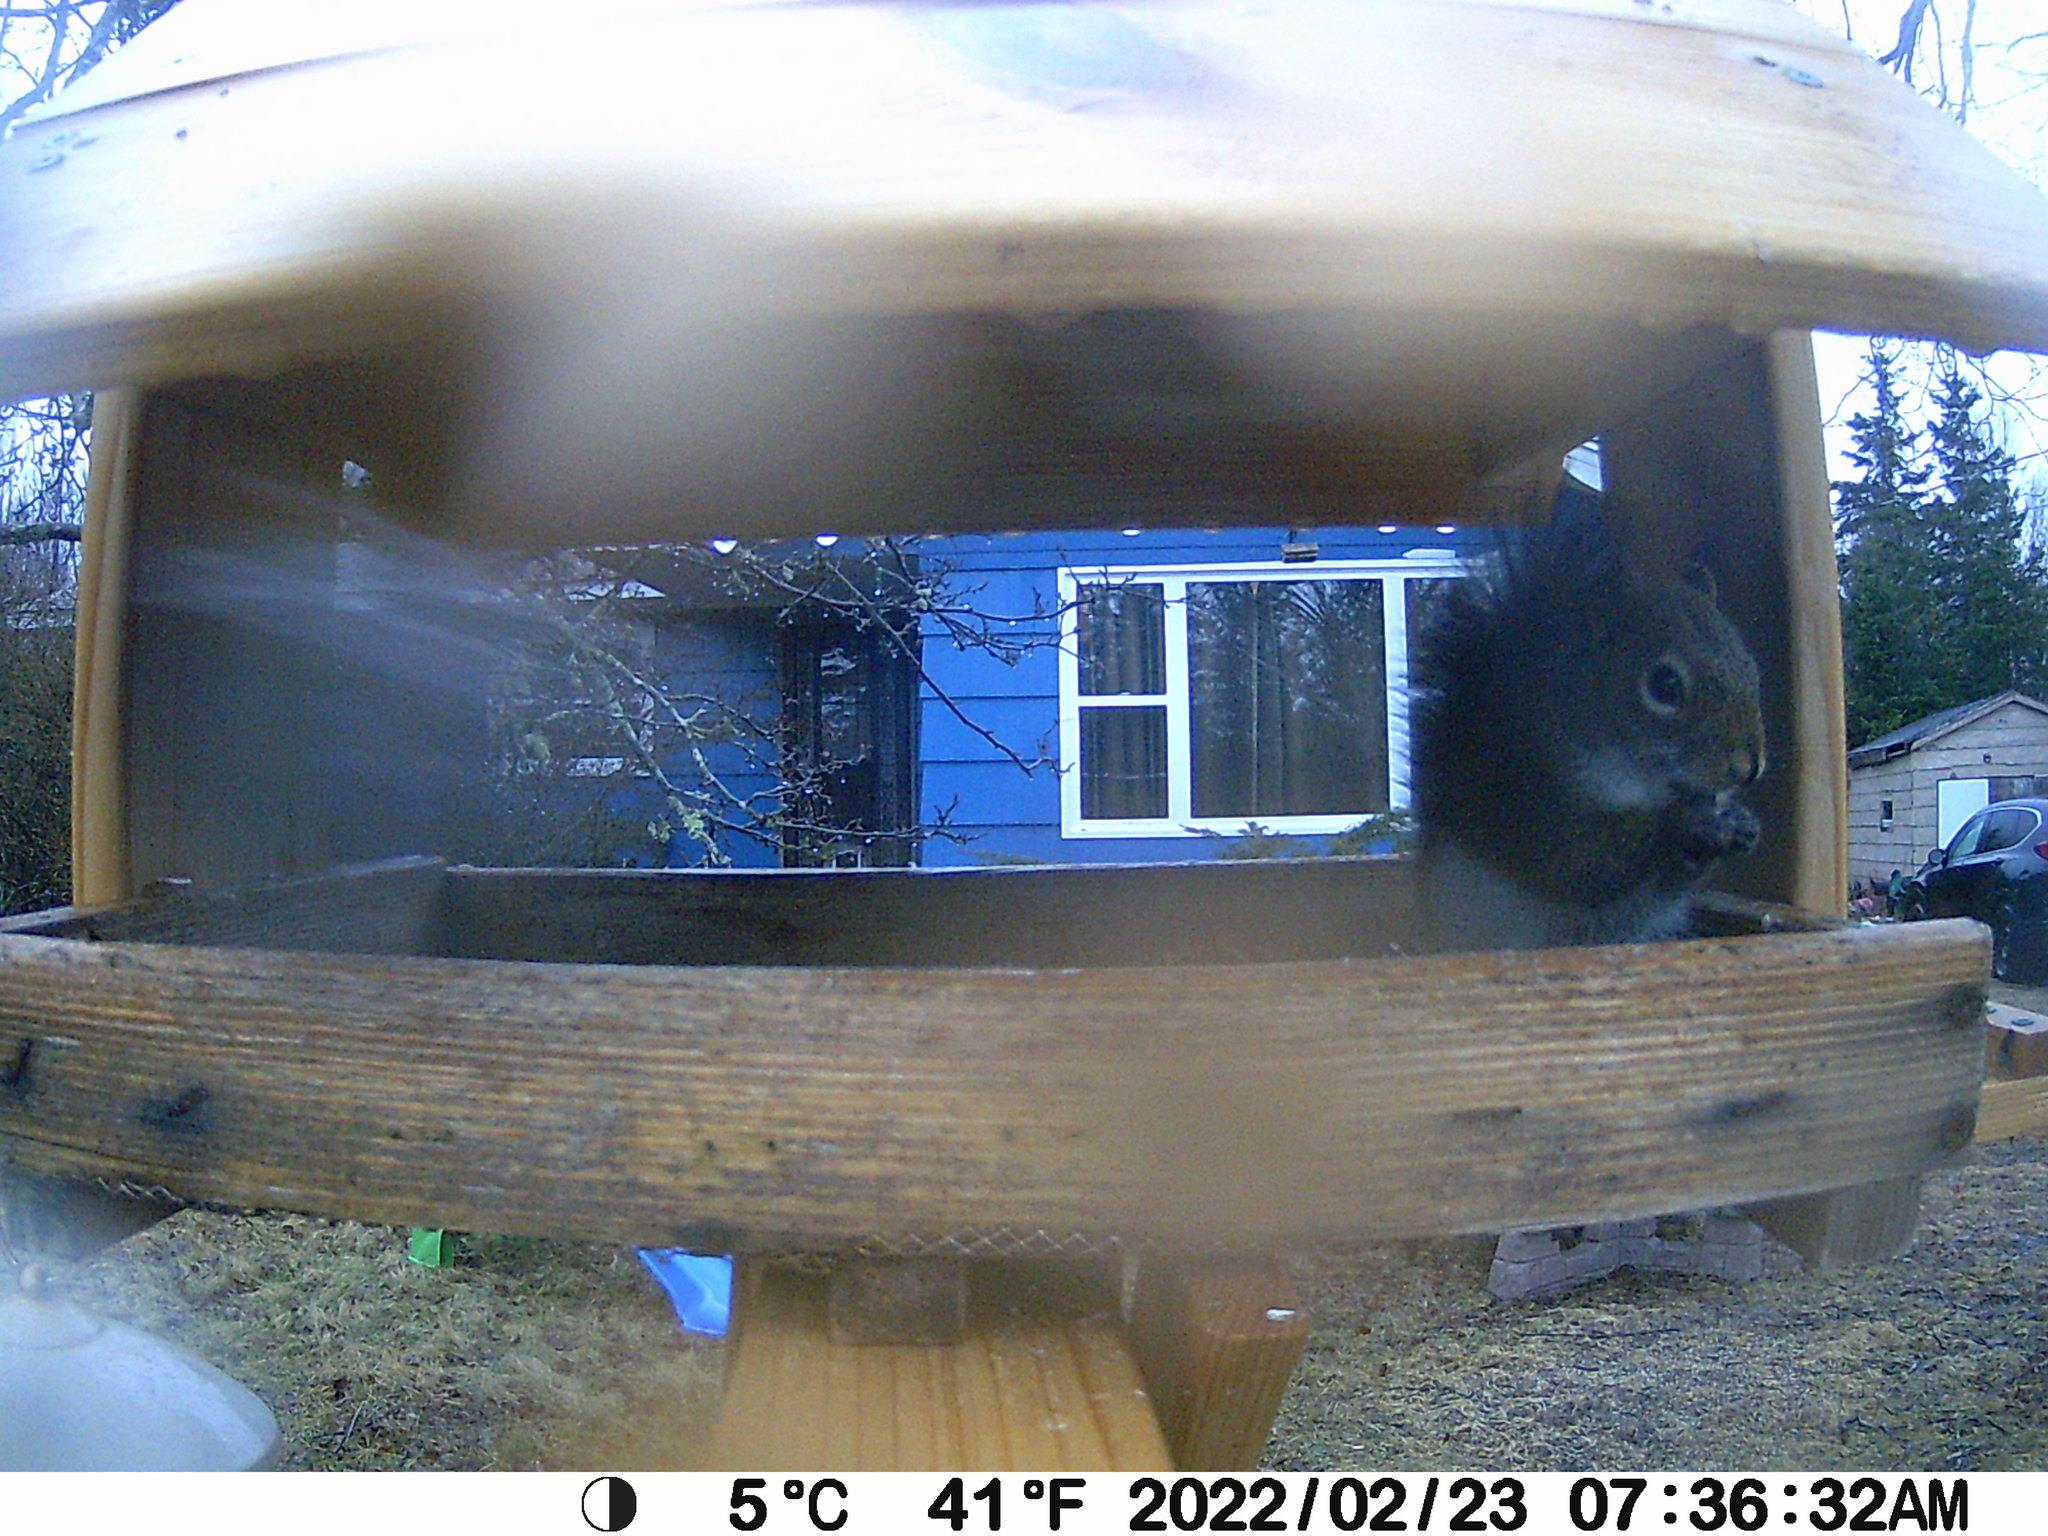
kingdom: Animalia
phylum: Chordata
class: Mammalia
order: Rodentia
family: Sciuridae
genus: Tamiasciurus
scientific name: Tamiasciurus hudsonicus
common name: Red squirrel
